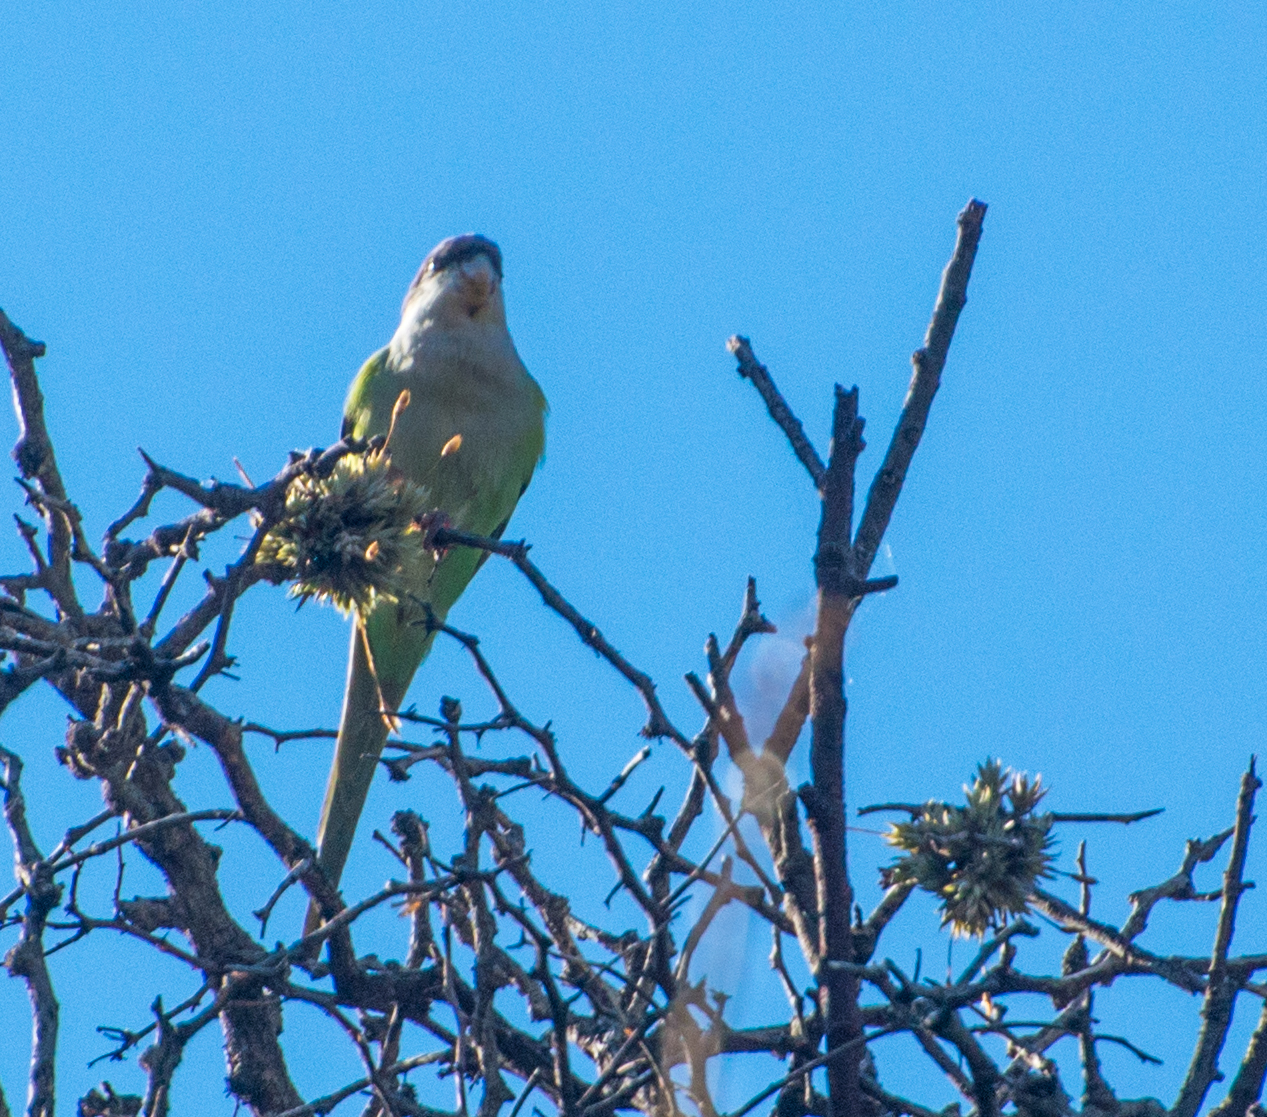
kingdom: Animalia
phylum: Chordata
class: Aves
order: Psittaciformes
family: Psittacidae
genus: Psilopsiagon
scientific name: Psilopsiagon aymara
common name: Grey-hooded parakeet
